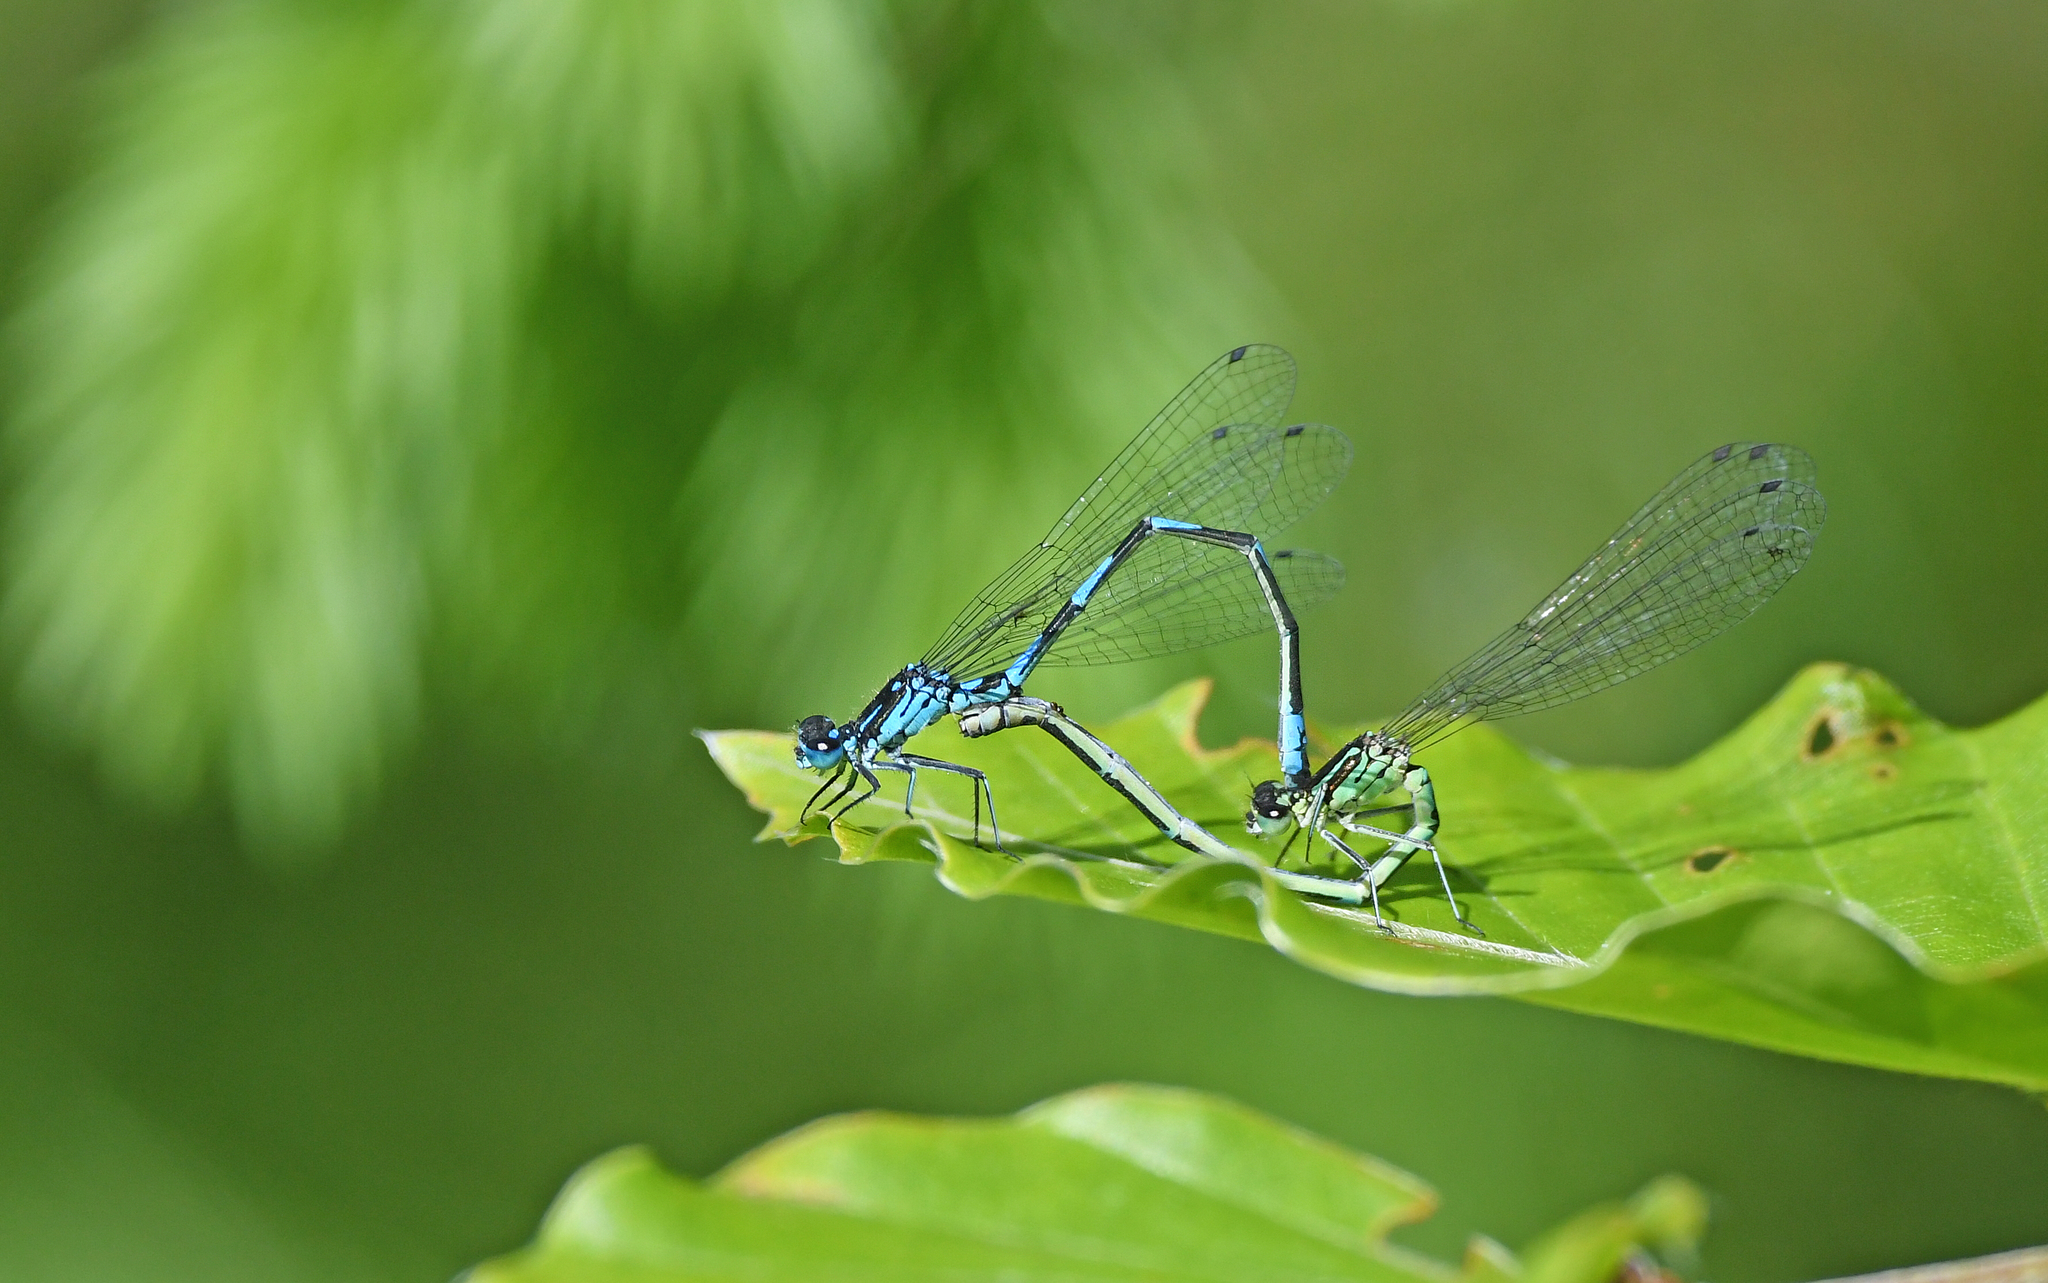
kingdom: Animalia
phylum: Arthropoda
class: Insecta
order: Odonata
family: Coenagrionidae
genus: Coenagrion
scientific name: Coenagrion pulchellum
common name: Variable bluet
